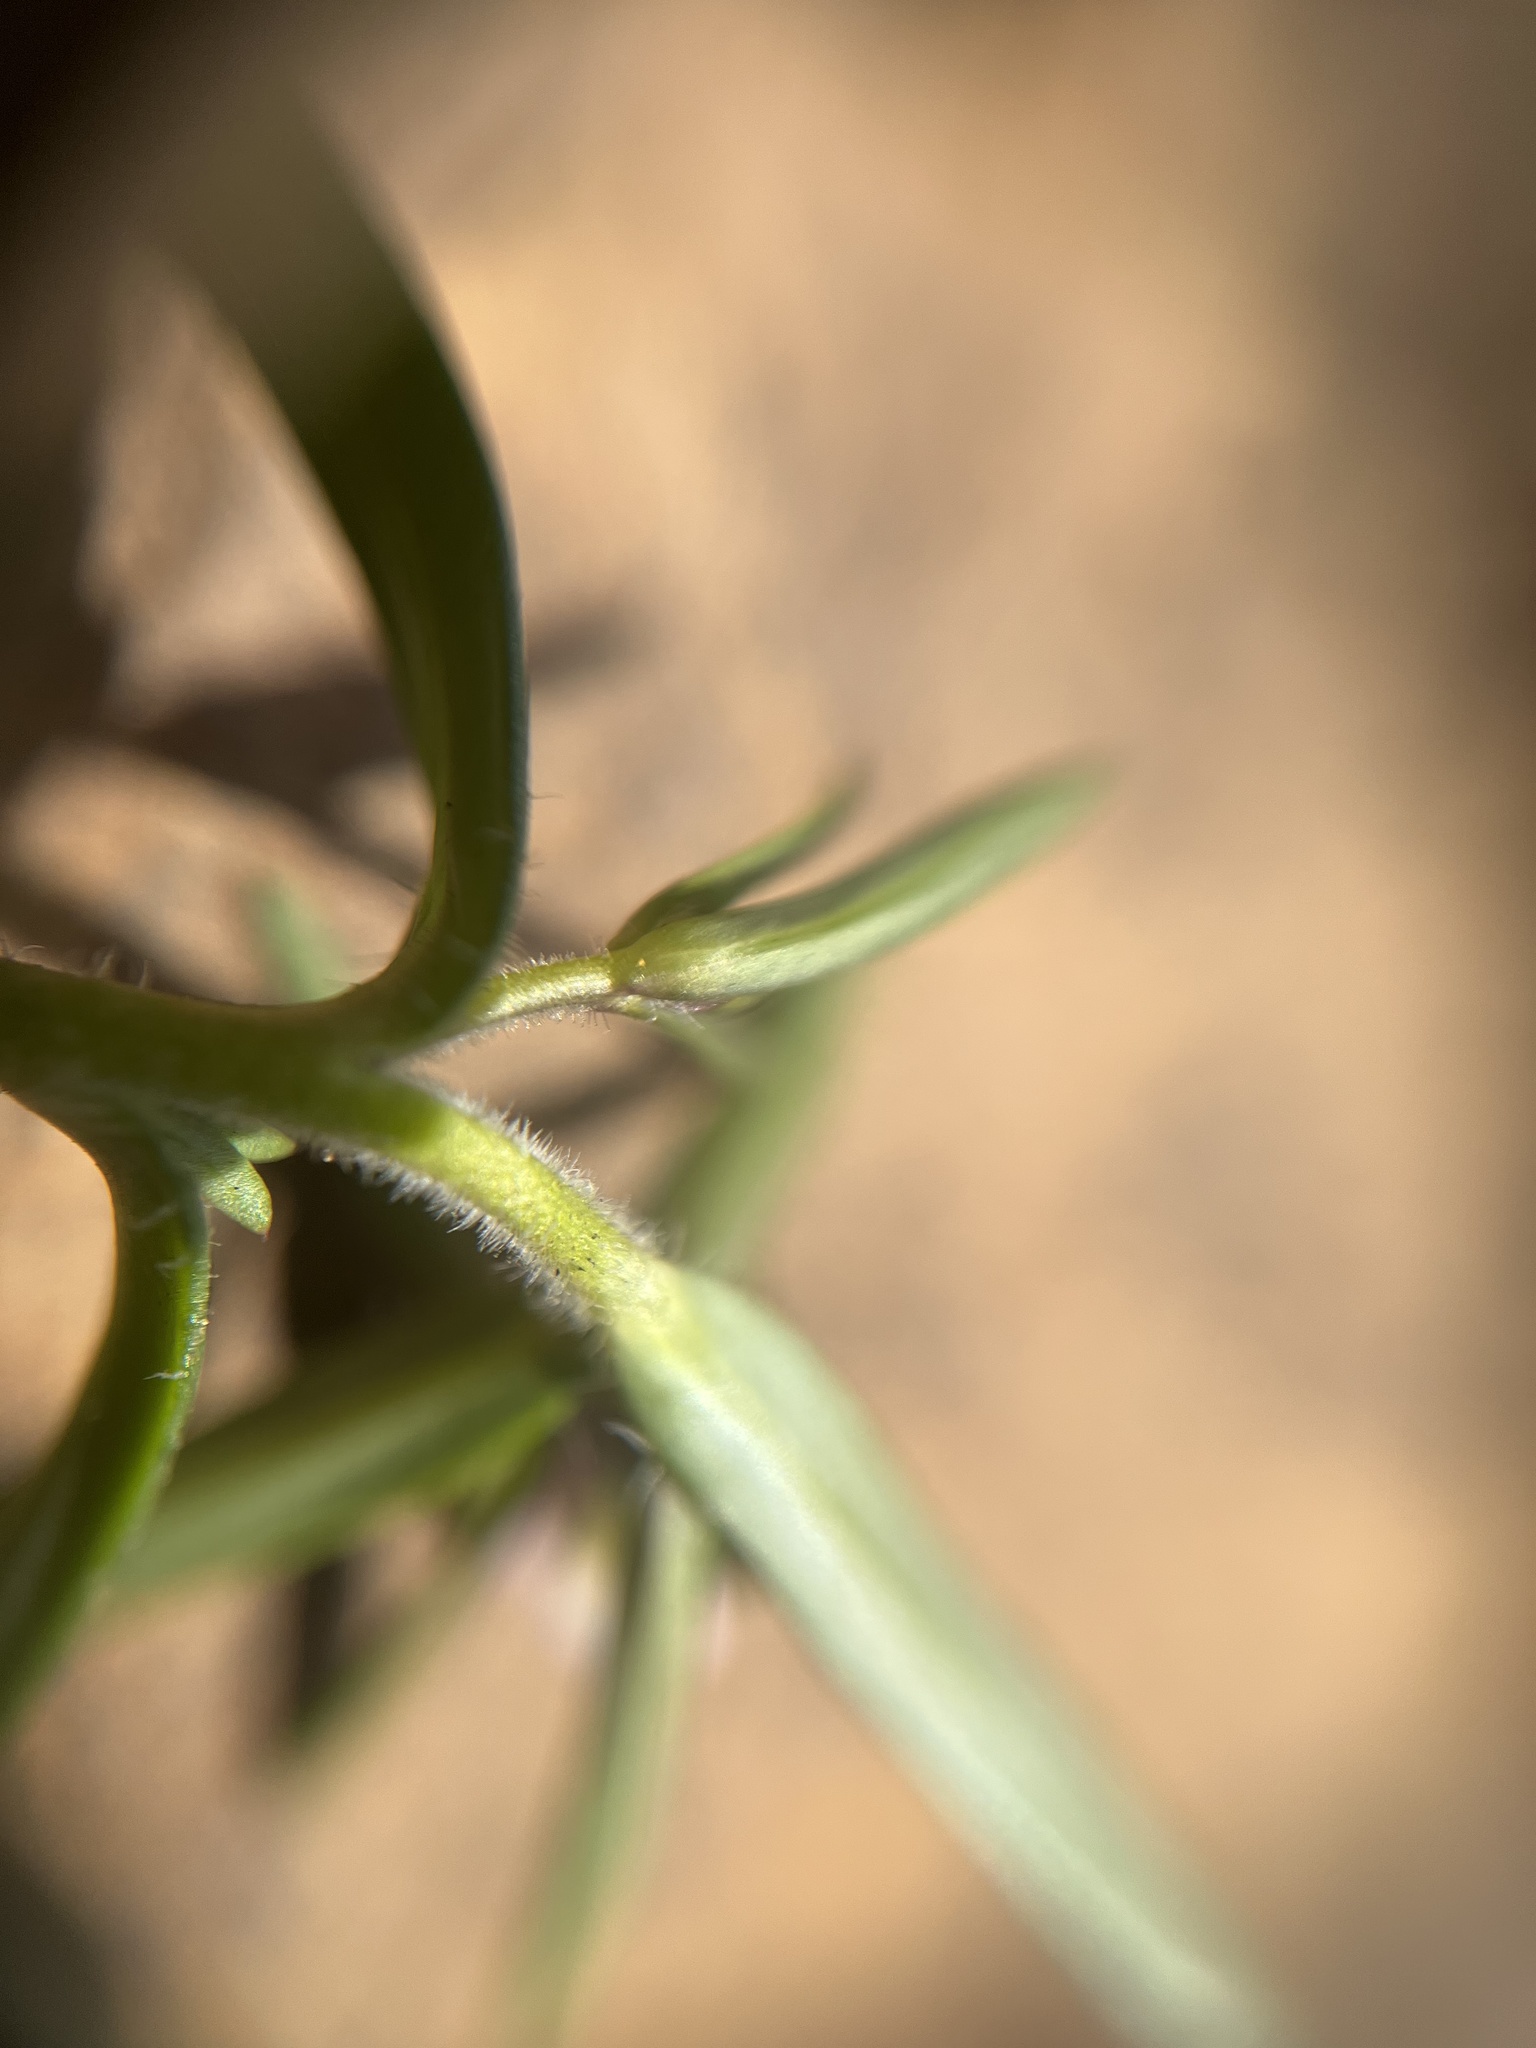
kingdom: Plantae
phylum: Tracheophyta
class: Magnoliopsida
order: Ericales
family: Polemoniaceae
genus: Phlox
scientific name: Phlox gracilis
